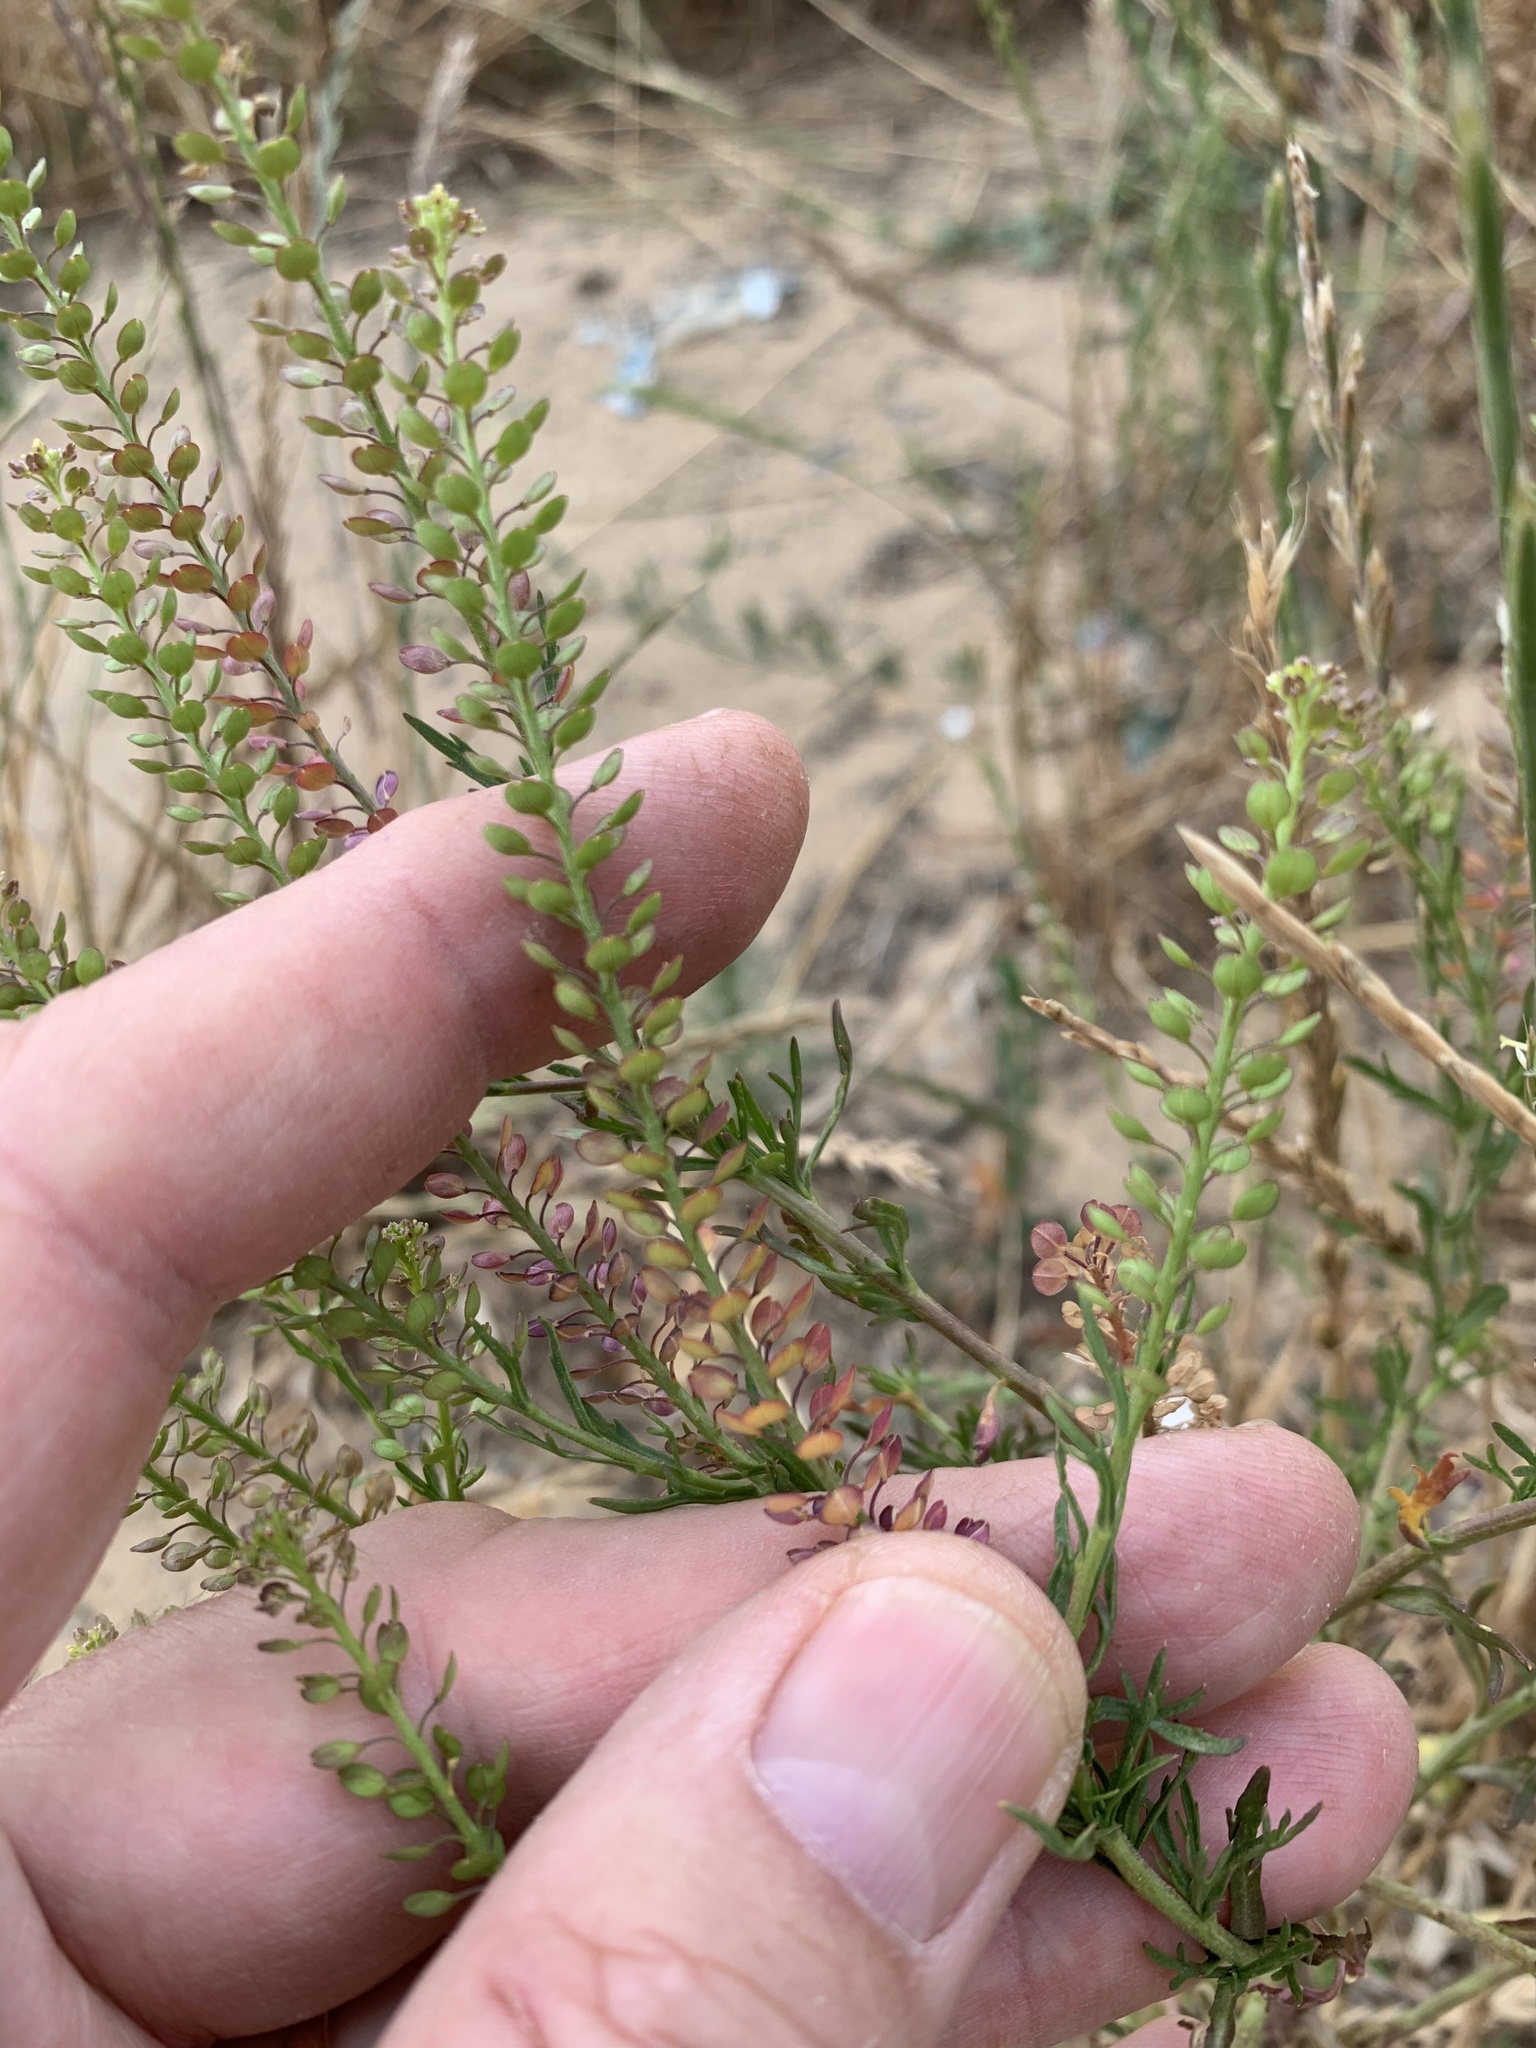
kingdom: Plantae
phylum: Tracheophyta
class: Magnoliopsida
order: Brassicales
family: Brassicaceae
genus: Lepidium
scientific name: Lepidium bonariense
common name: Argentine pepperwort
